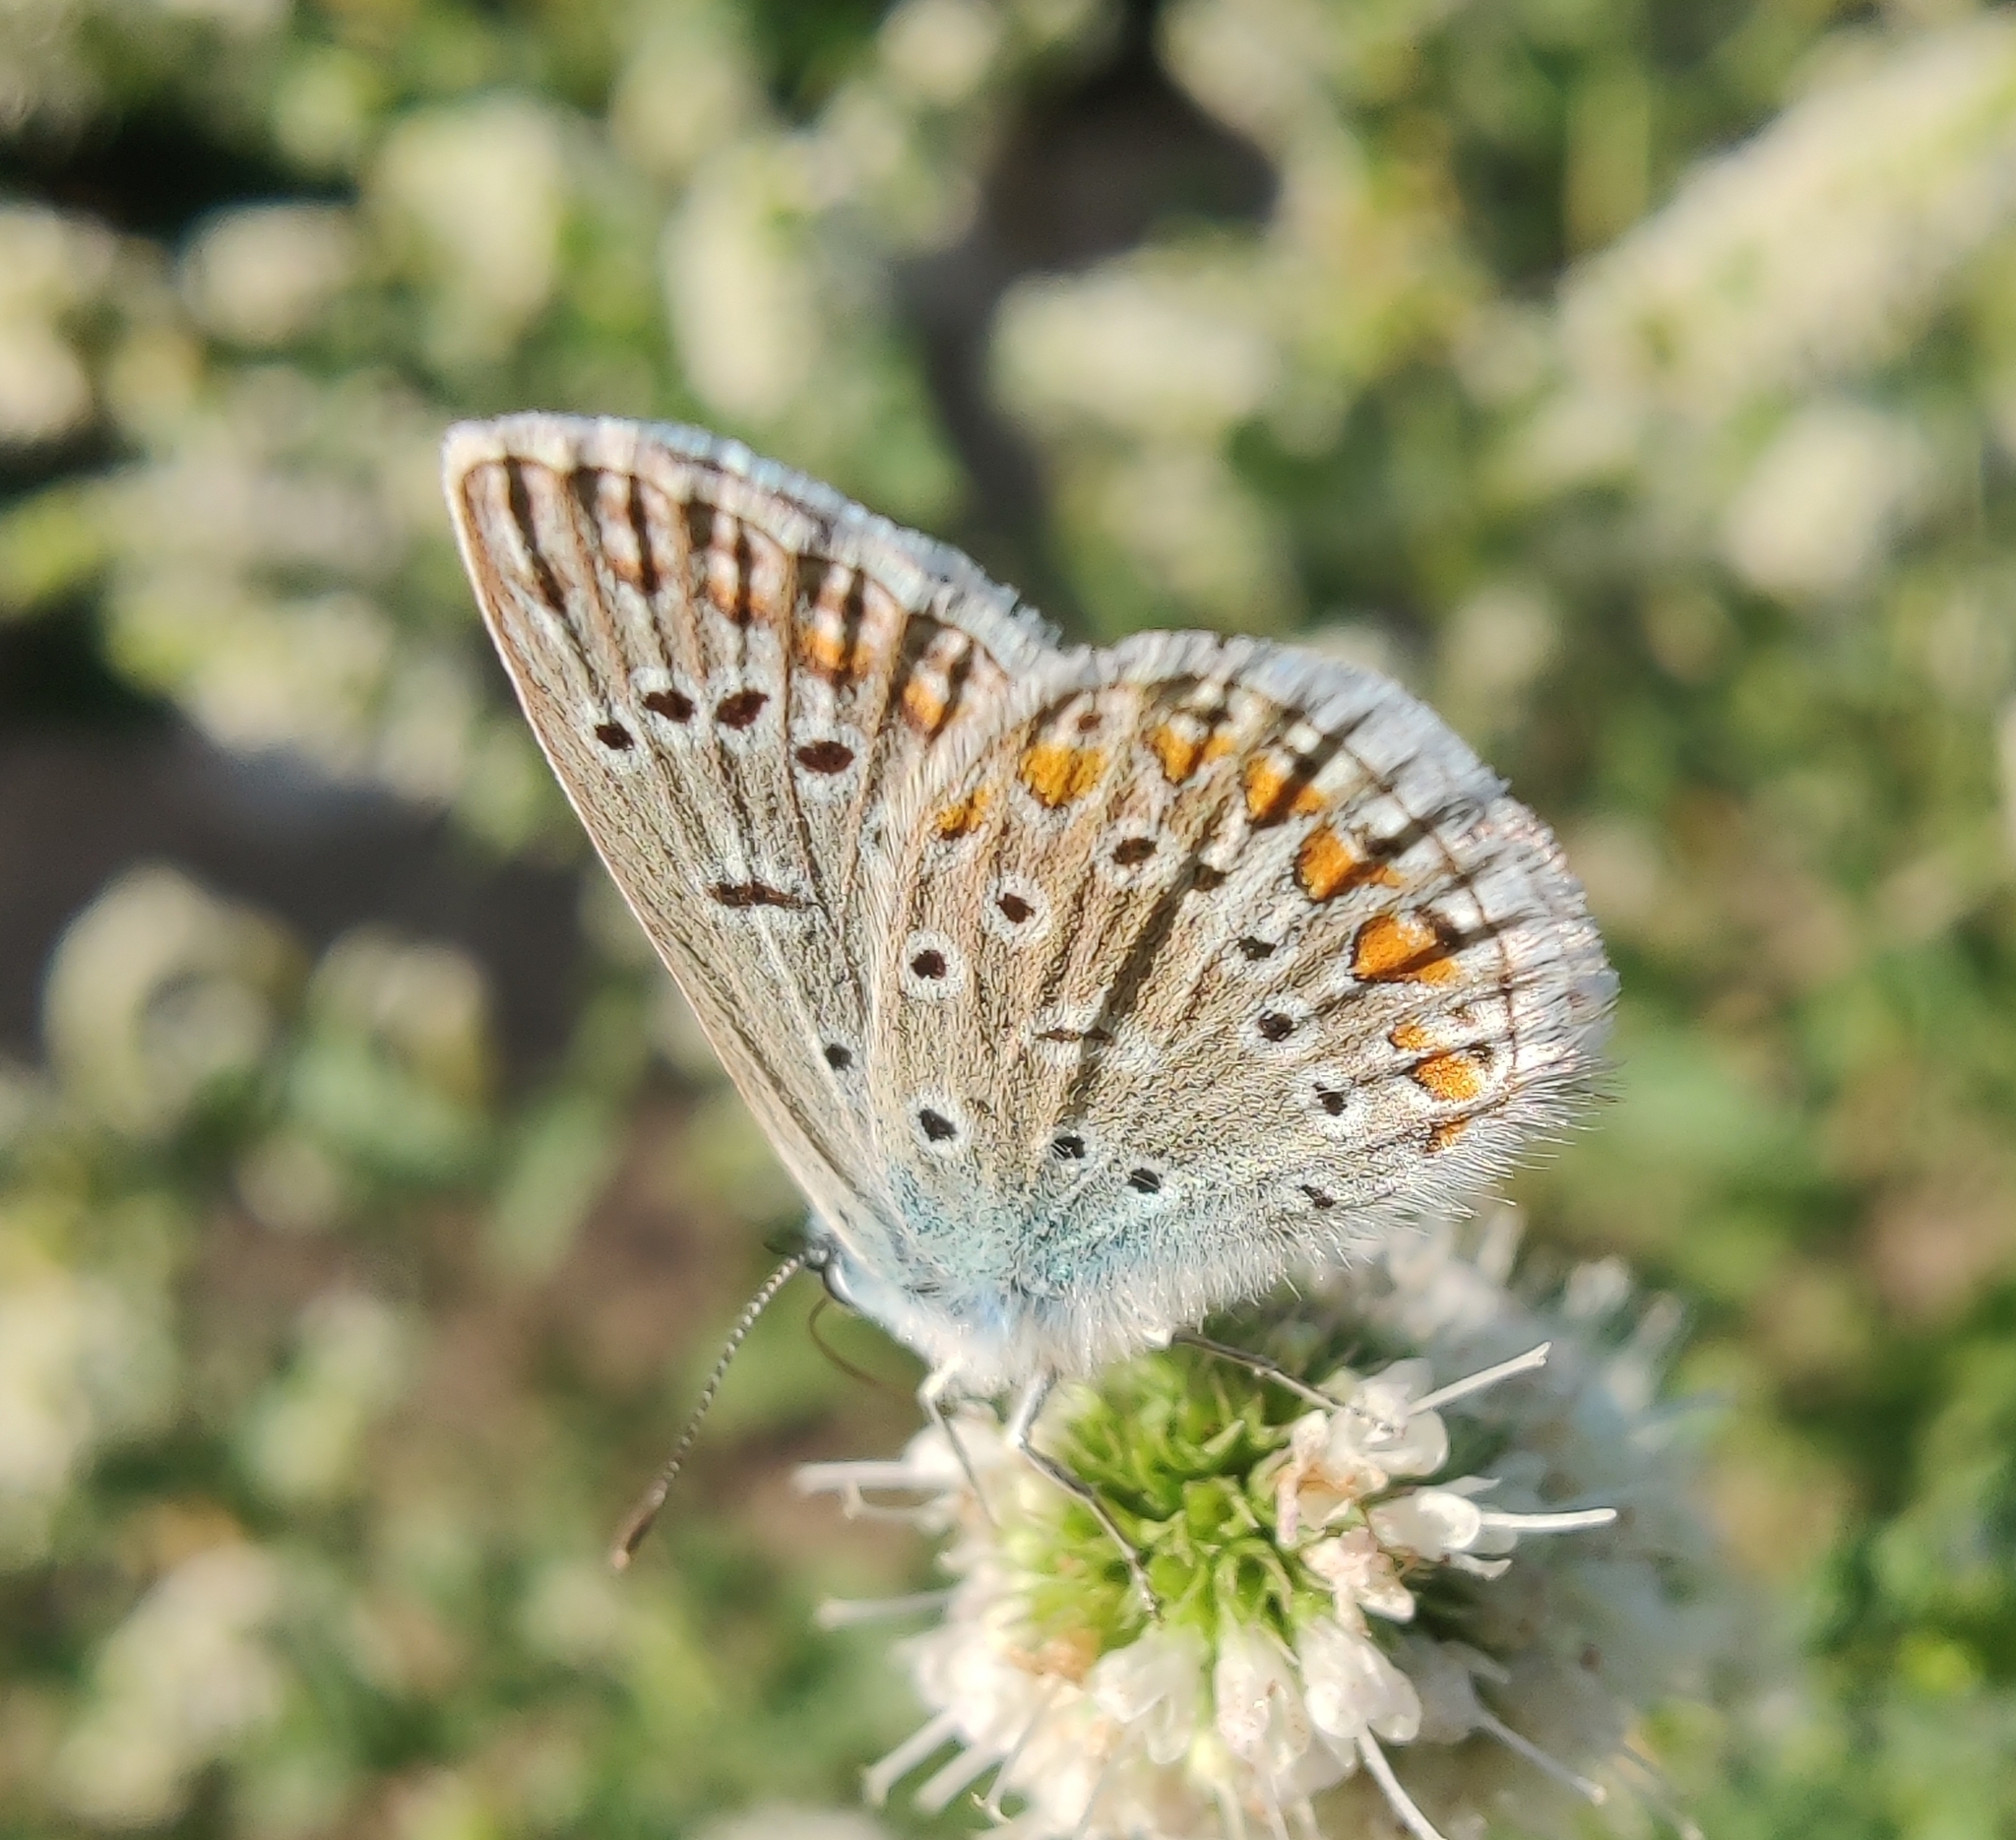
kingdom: Animalia
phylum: Arthropoda
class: Insecta
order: Lepidoptera
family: Lycaenidae
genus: Polyommatus
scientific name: Polyommatus icarus
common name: Common blue
